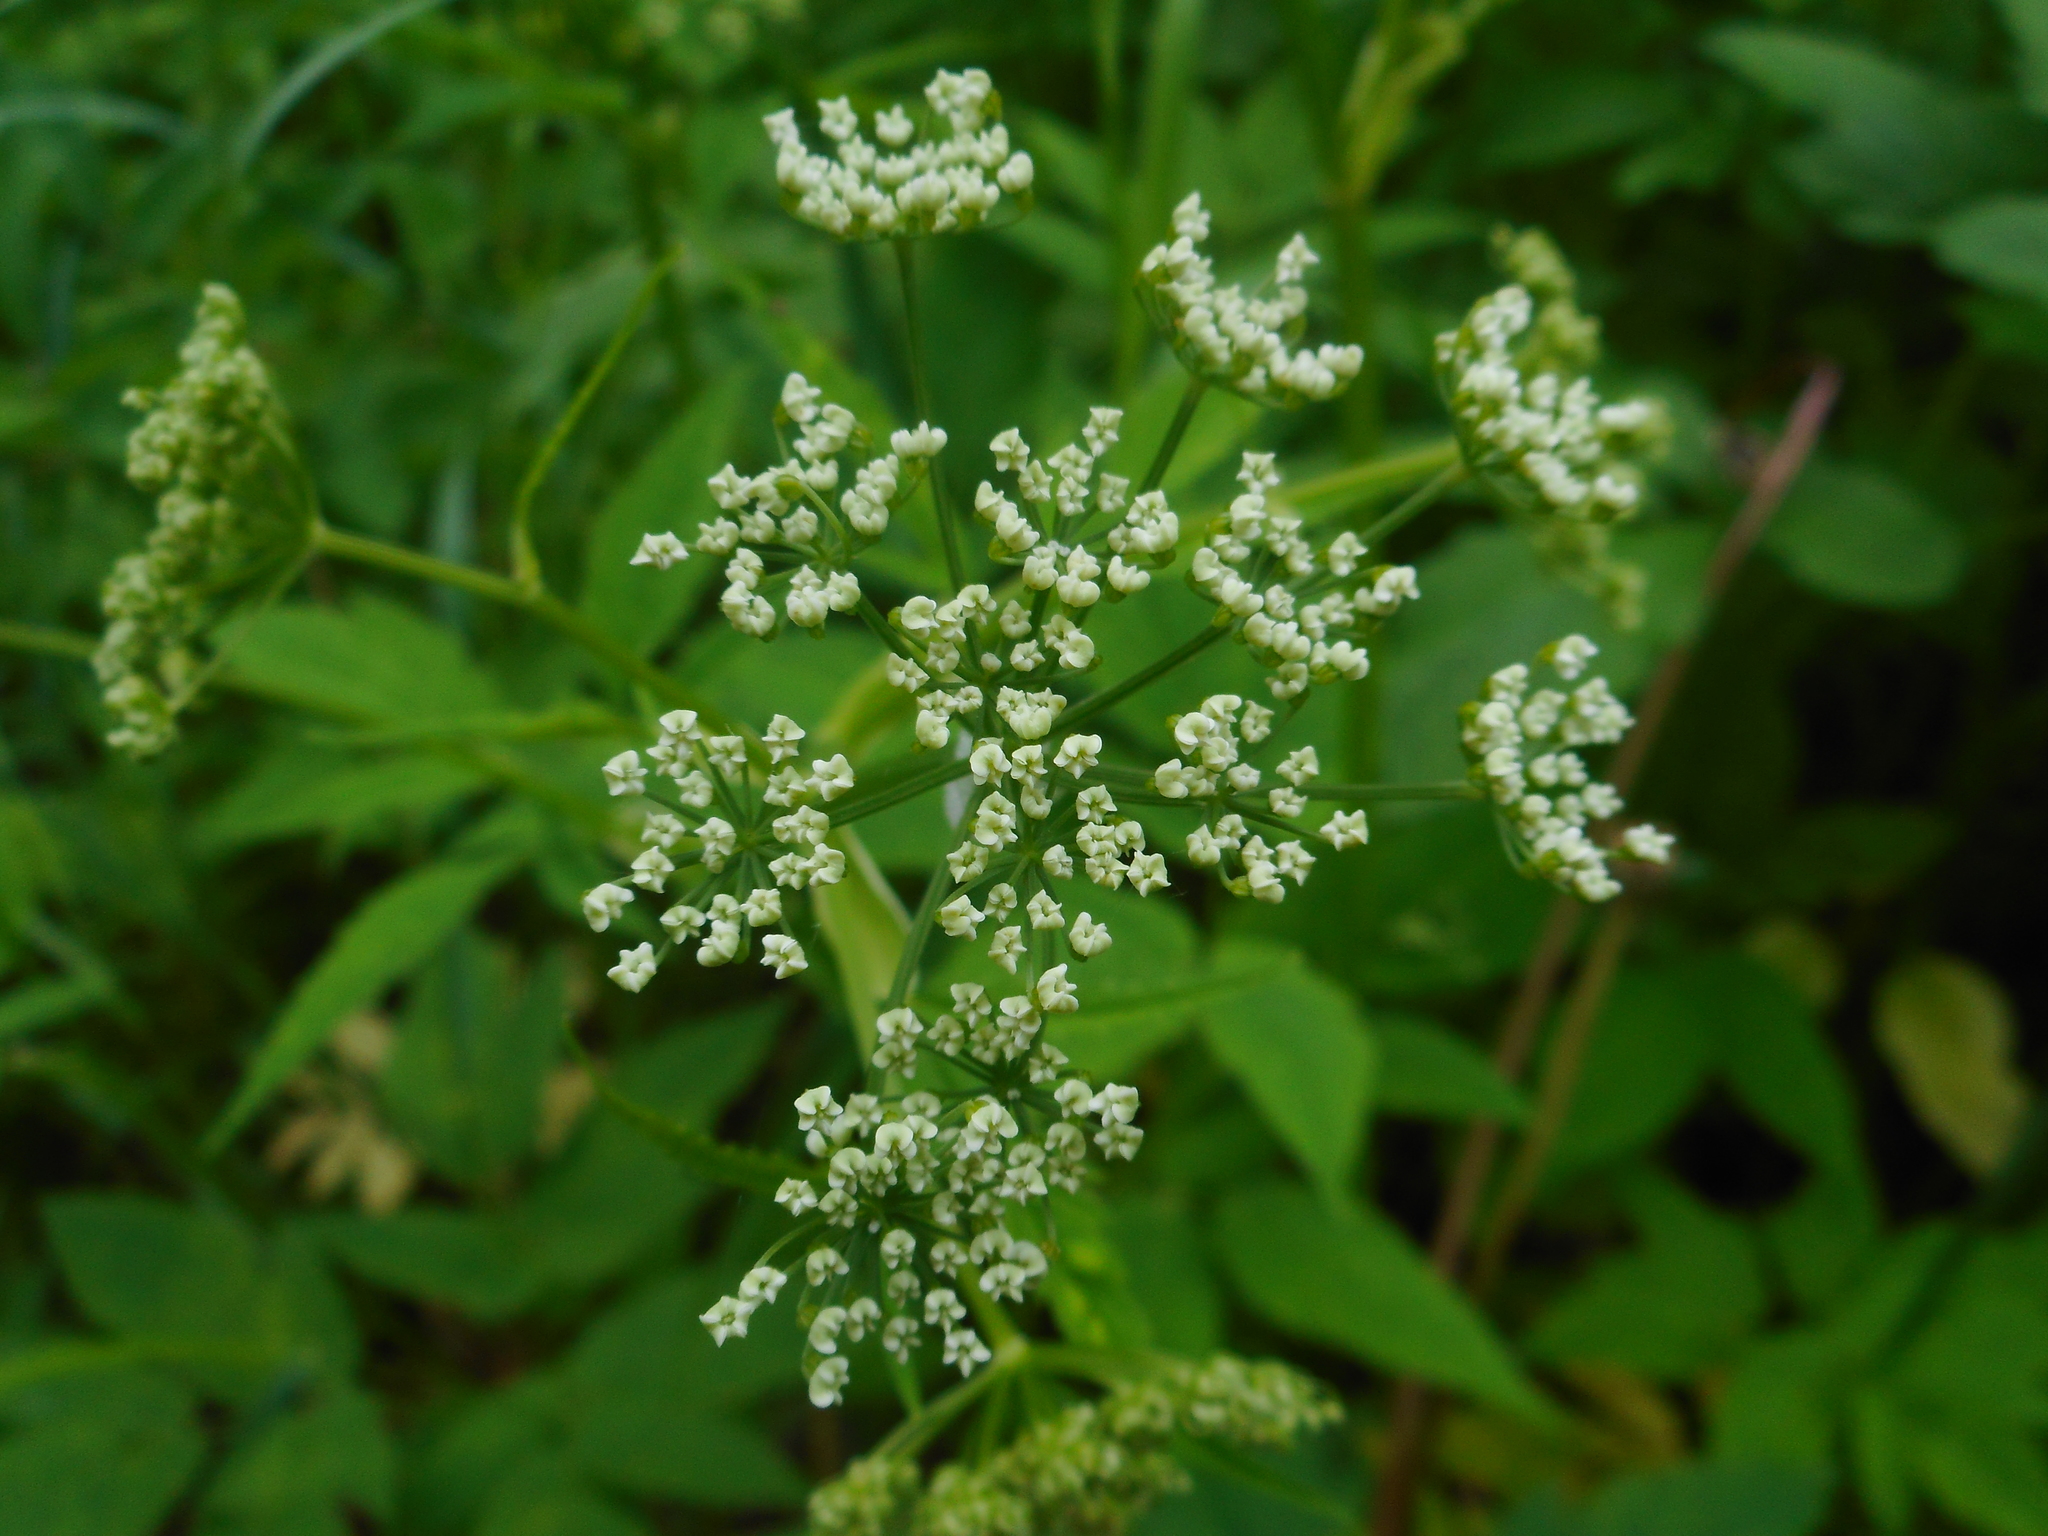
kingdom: Plantae
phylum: Tracheophyta
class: Magnoliopsida
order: Apiales
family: Apiaceae
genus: Aegopodium
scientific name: Aegopodium podagraria
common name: Ground-elder
